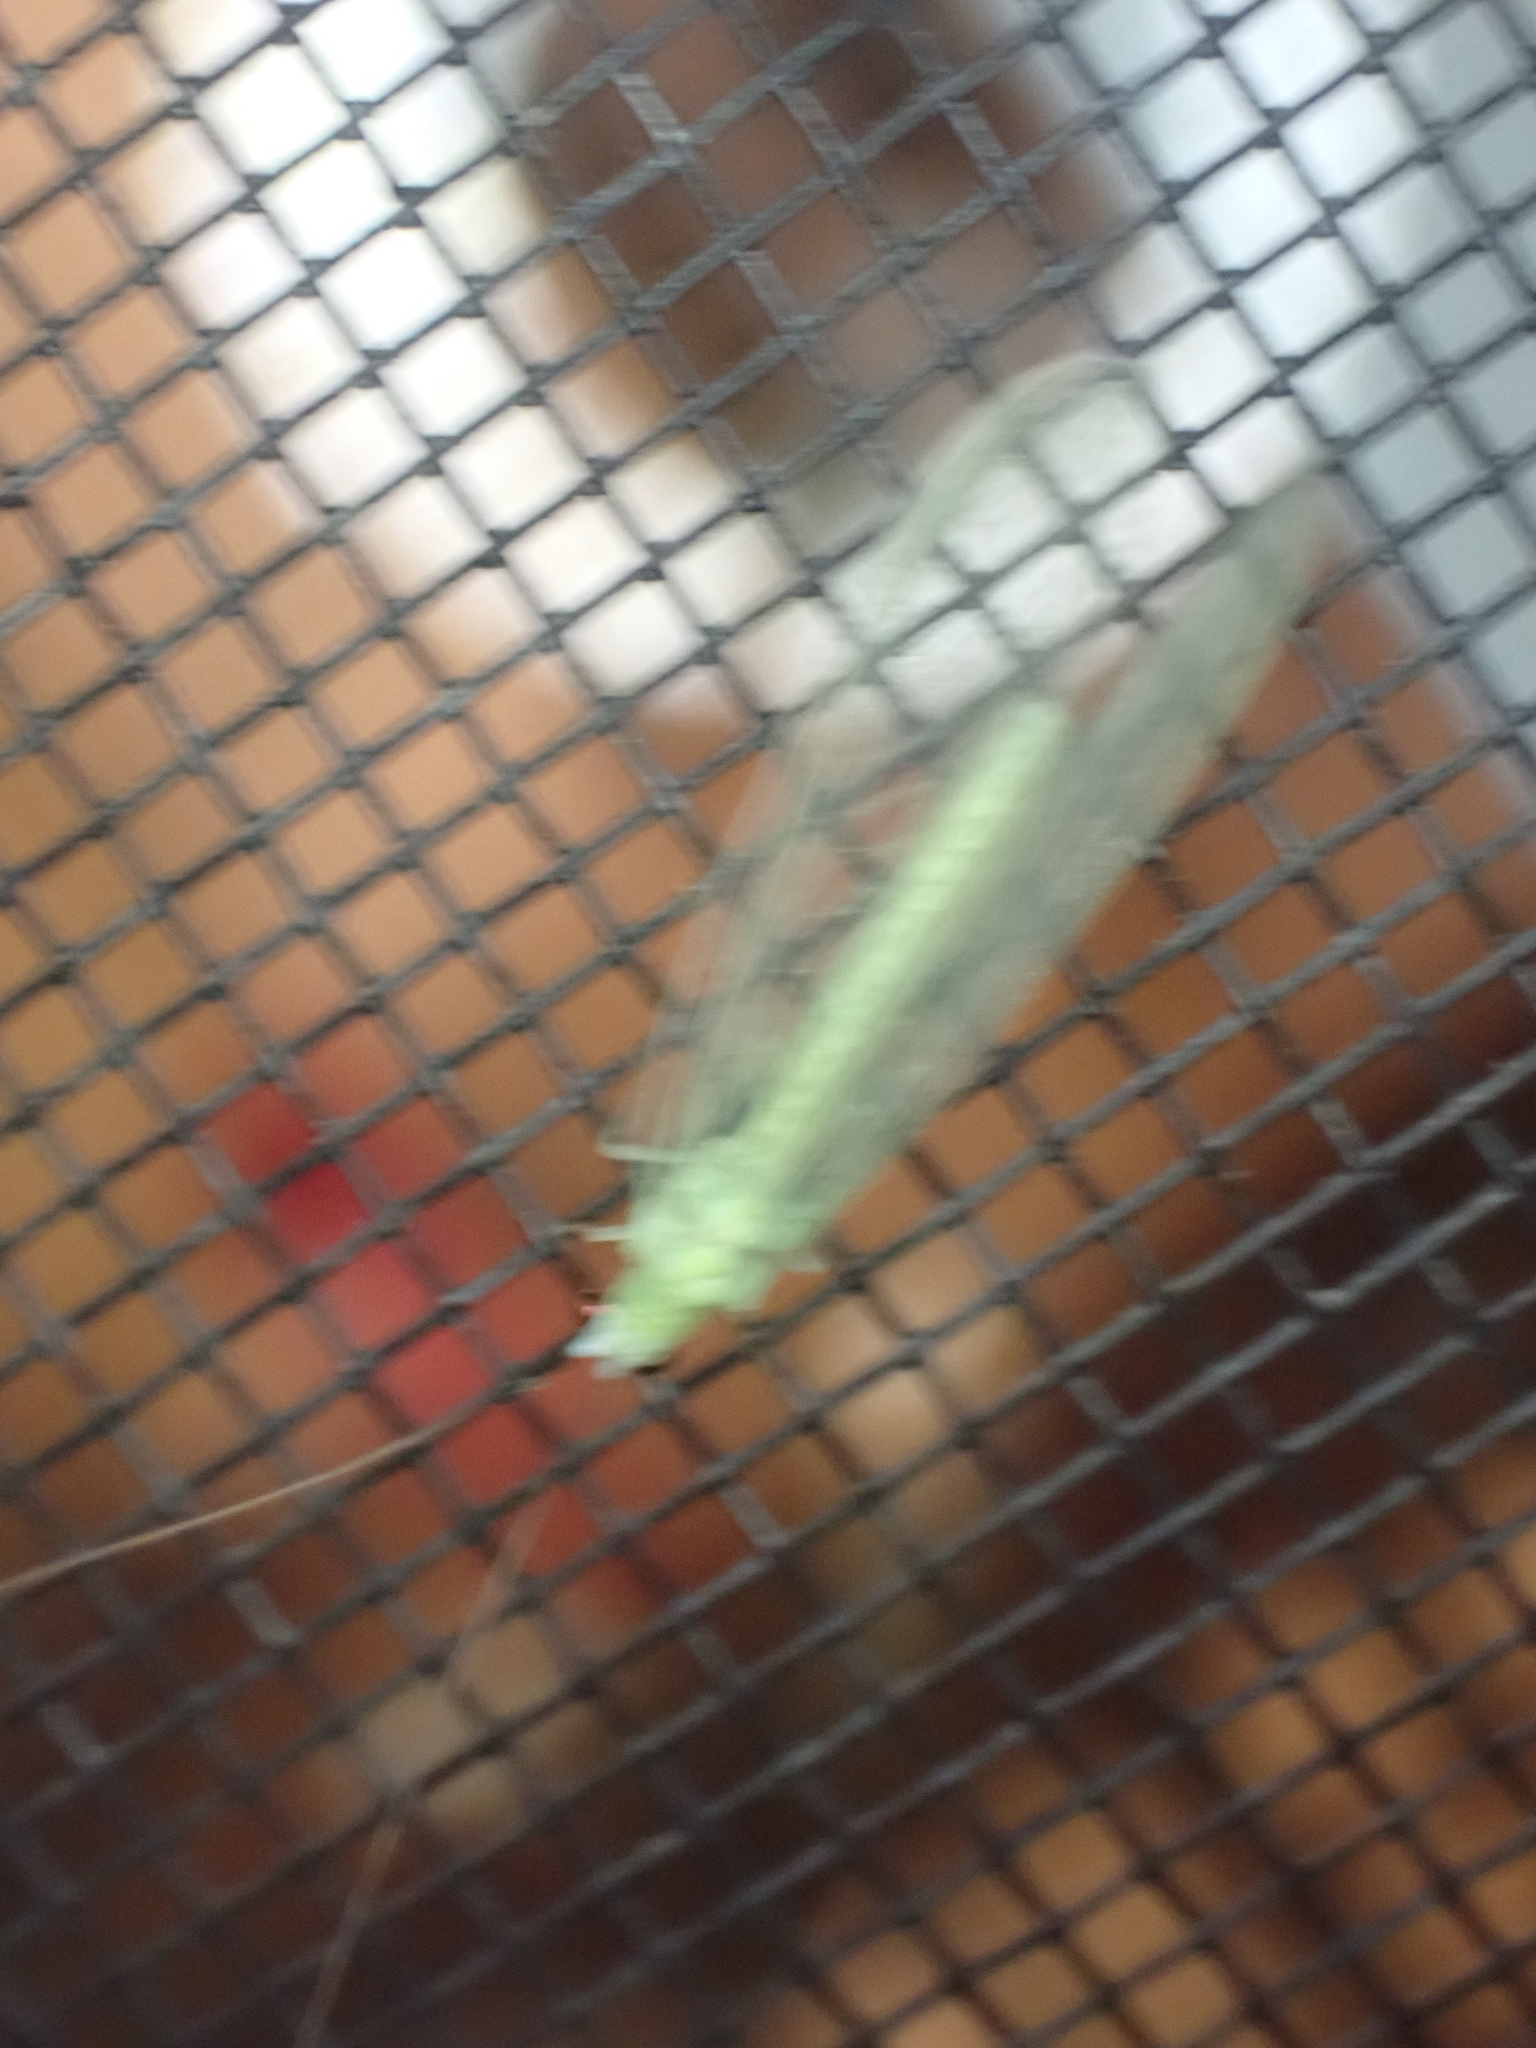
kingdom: Animalia
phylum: Arthropoda
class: Insecta
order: Neuroptera
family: Chrysopidae
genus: Chrysopa
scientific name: Chrysopa nigricornis
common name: Black-horned green lacewing
